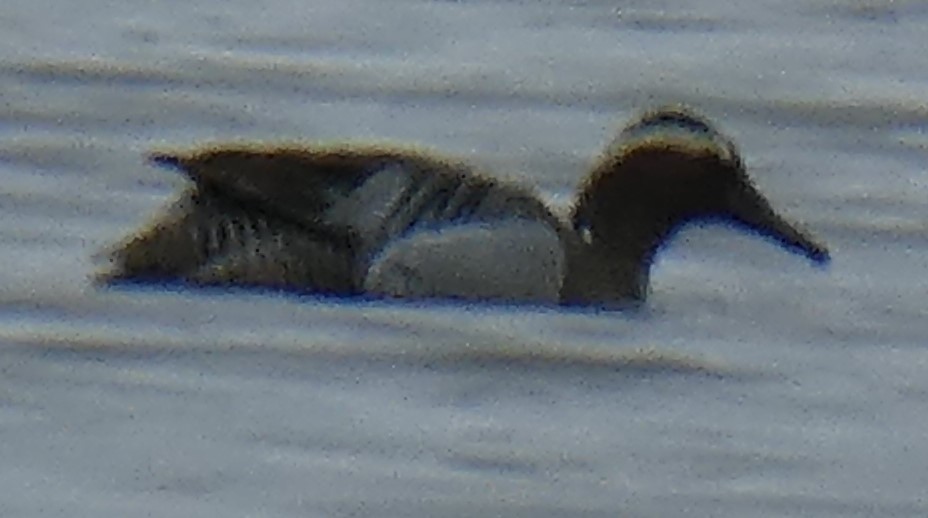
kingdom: Animalia
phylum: Chordata
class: Aves
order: Anseriformes
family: Anatidae
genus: Spatula
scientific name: Spatula querquedula
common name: Garganey
